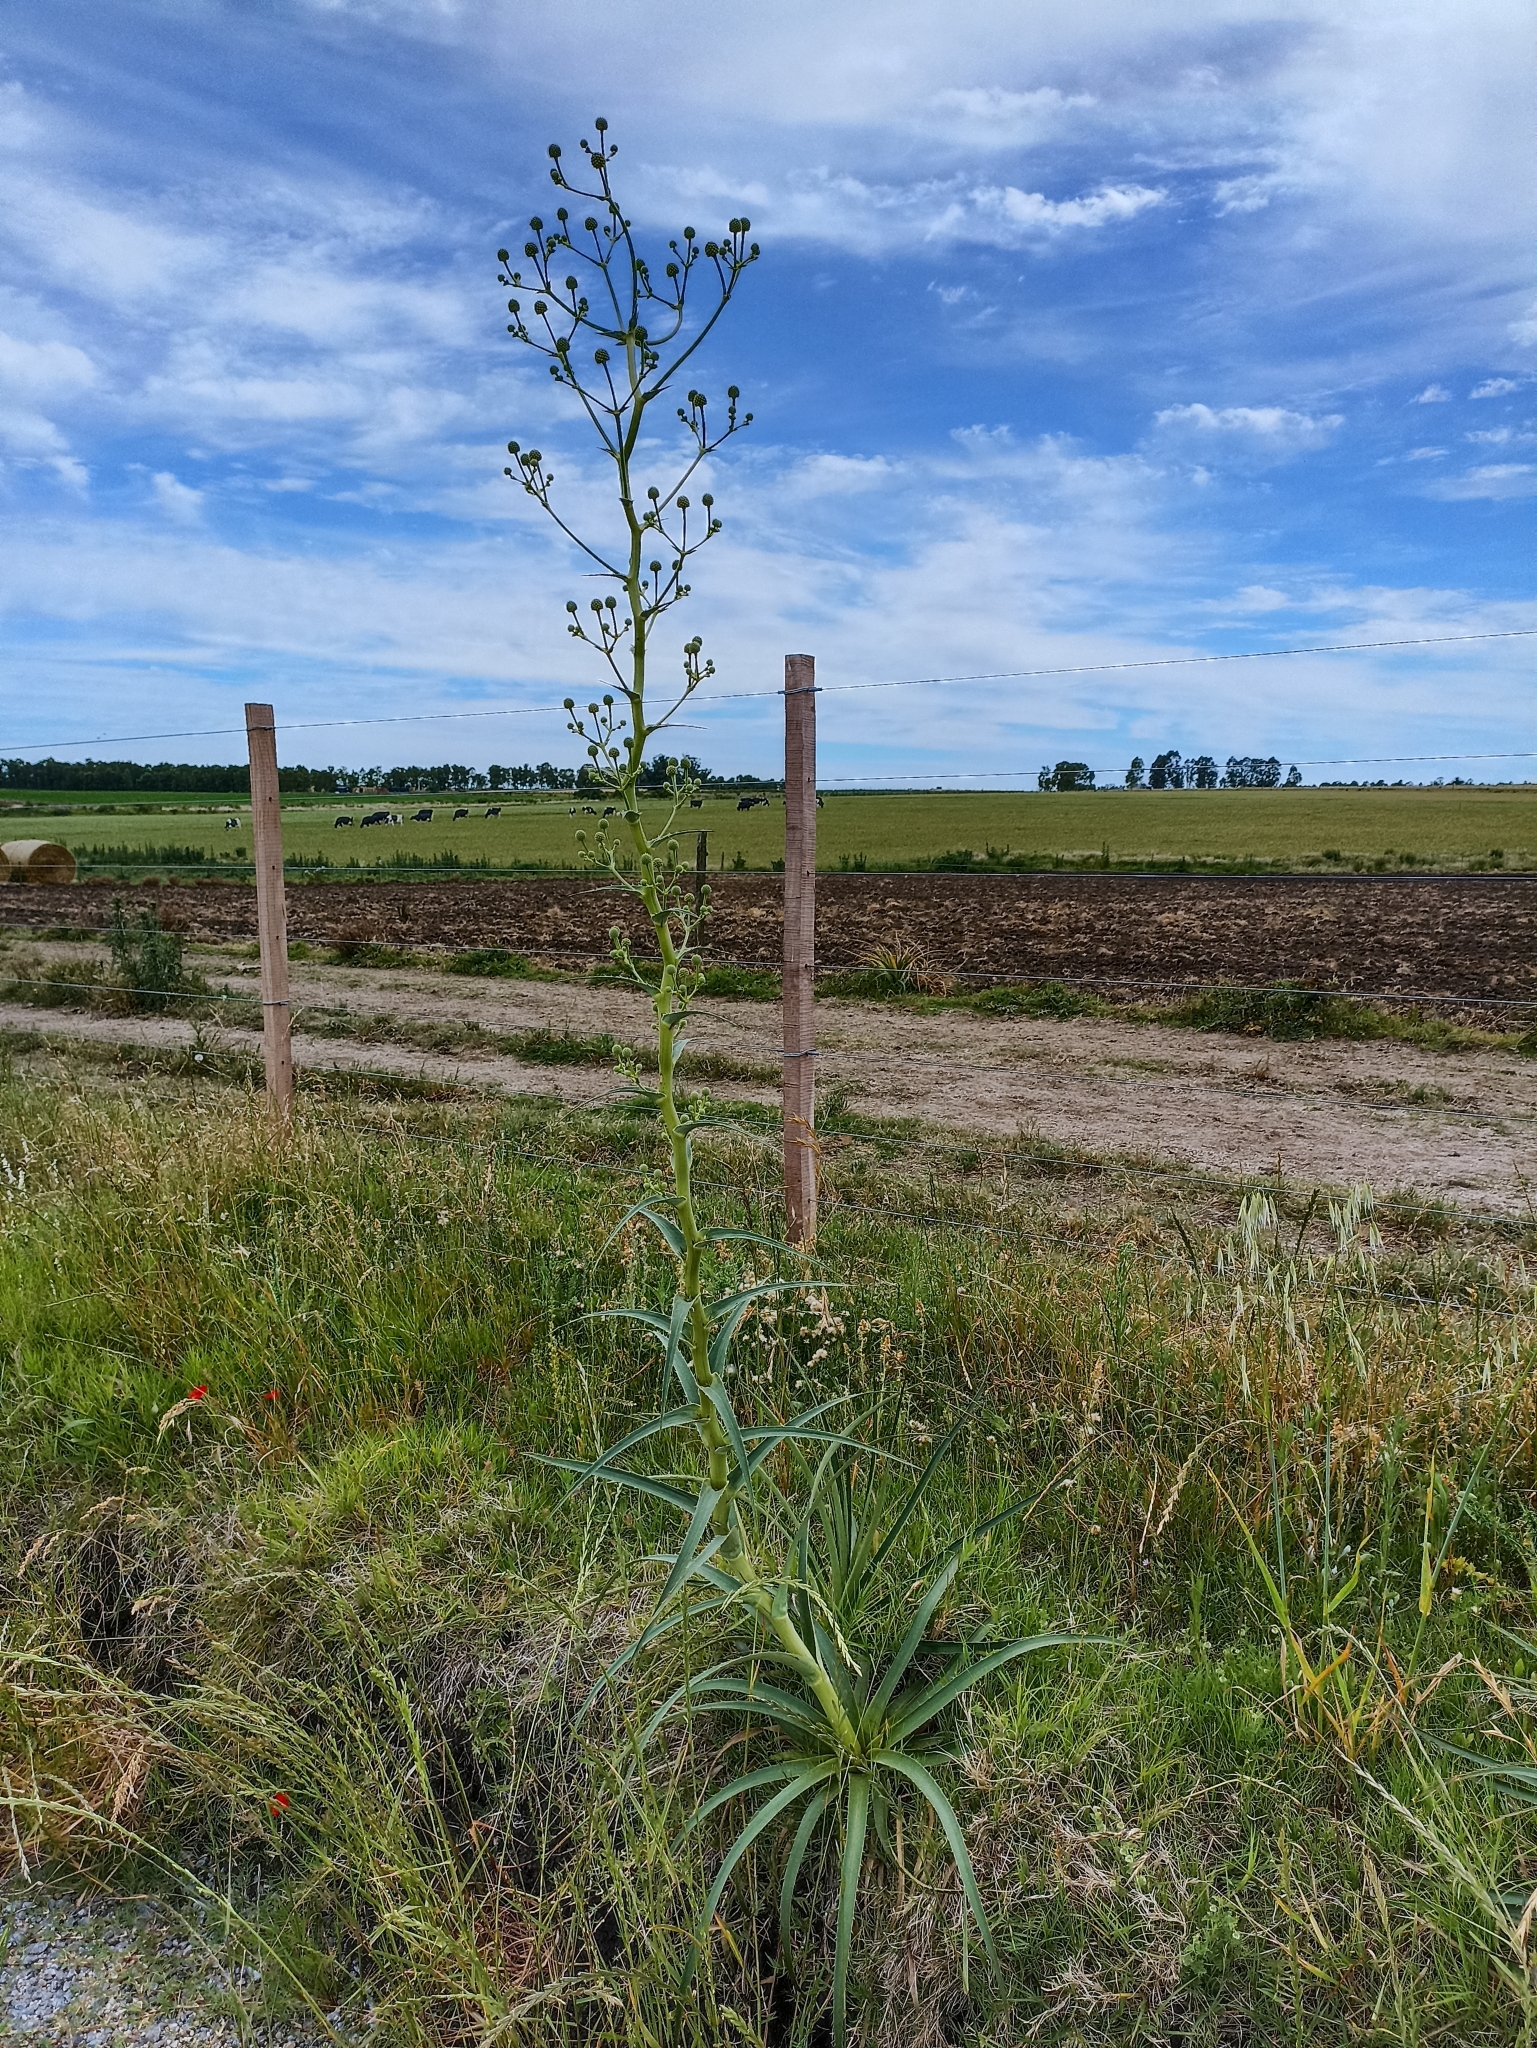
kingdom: Plantae
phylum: Tracheophyta
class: Magnoliopsida
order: Apiales
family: Apiaceae
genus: Eryngium
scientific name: Eryngium horridum
